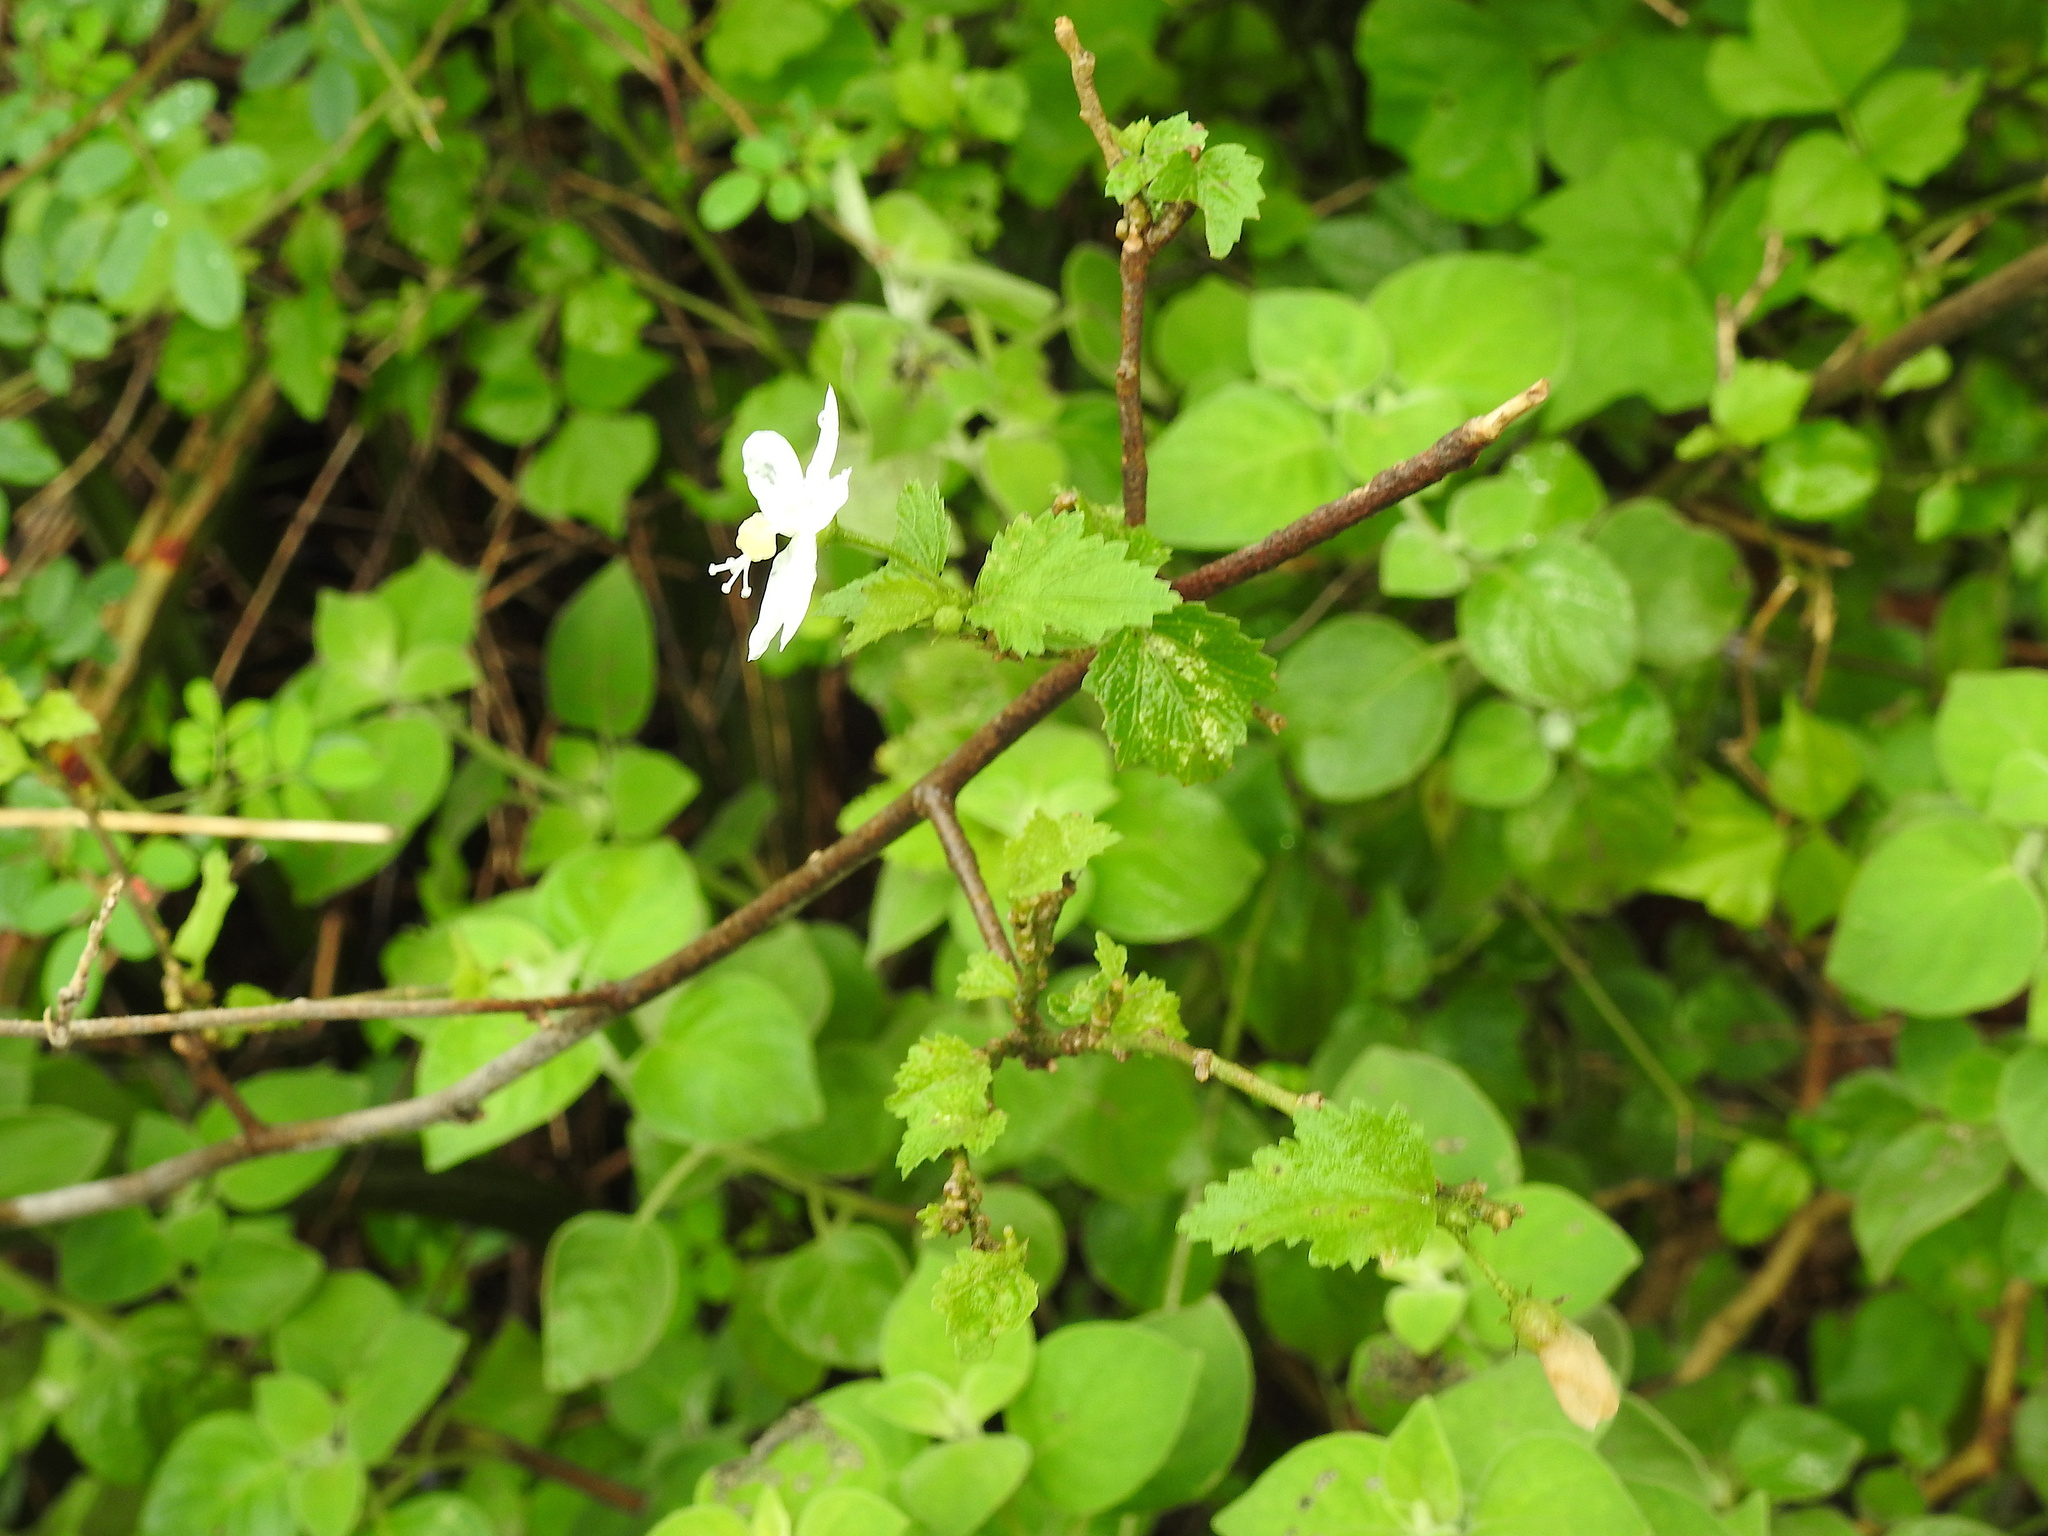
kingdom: Plantae
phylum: Tracheophyta
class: Magnoliopsida
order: Malvales
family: Malvaceae
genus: Hibiscus
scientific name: Hibiscus micranthus
